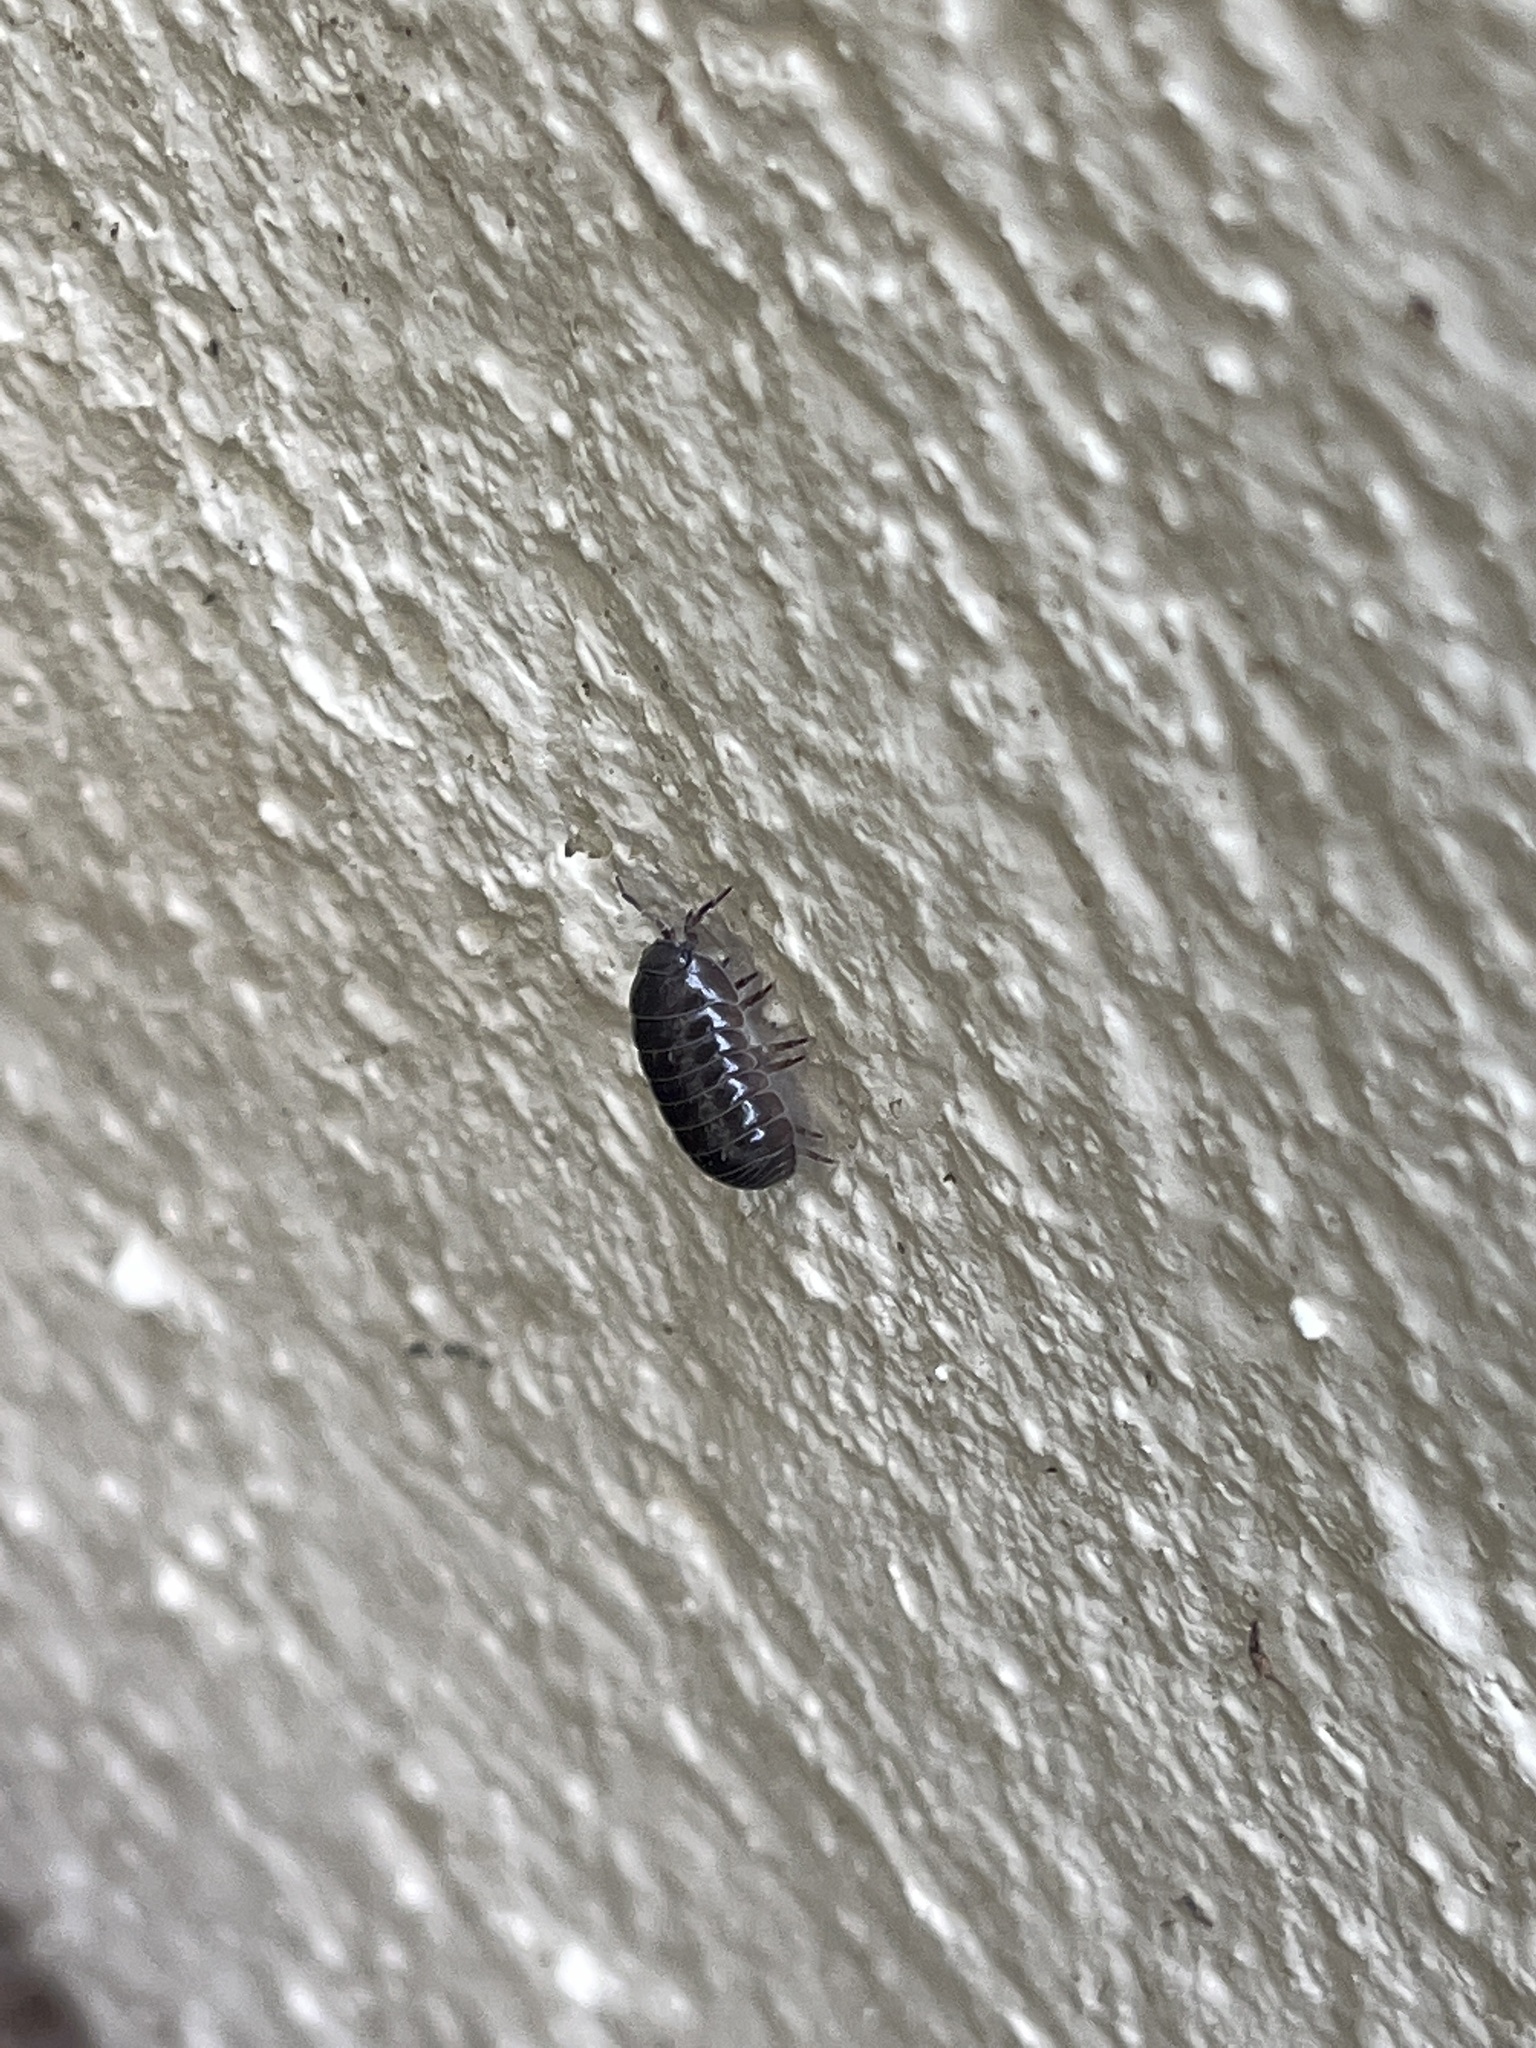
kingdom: Animalia
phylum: Arthropoda
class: Malacostraca
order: Isopoda
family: Armadillidiidae
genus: Armadillidium
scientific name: Armadillidium vulgare
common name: Common pill woodlouse
